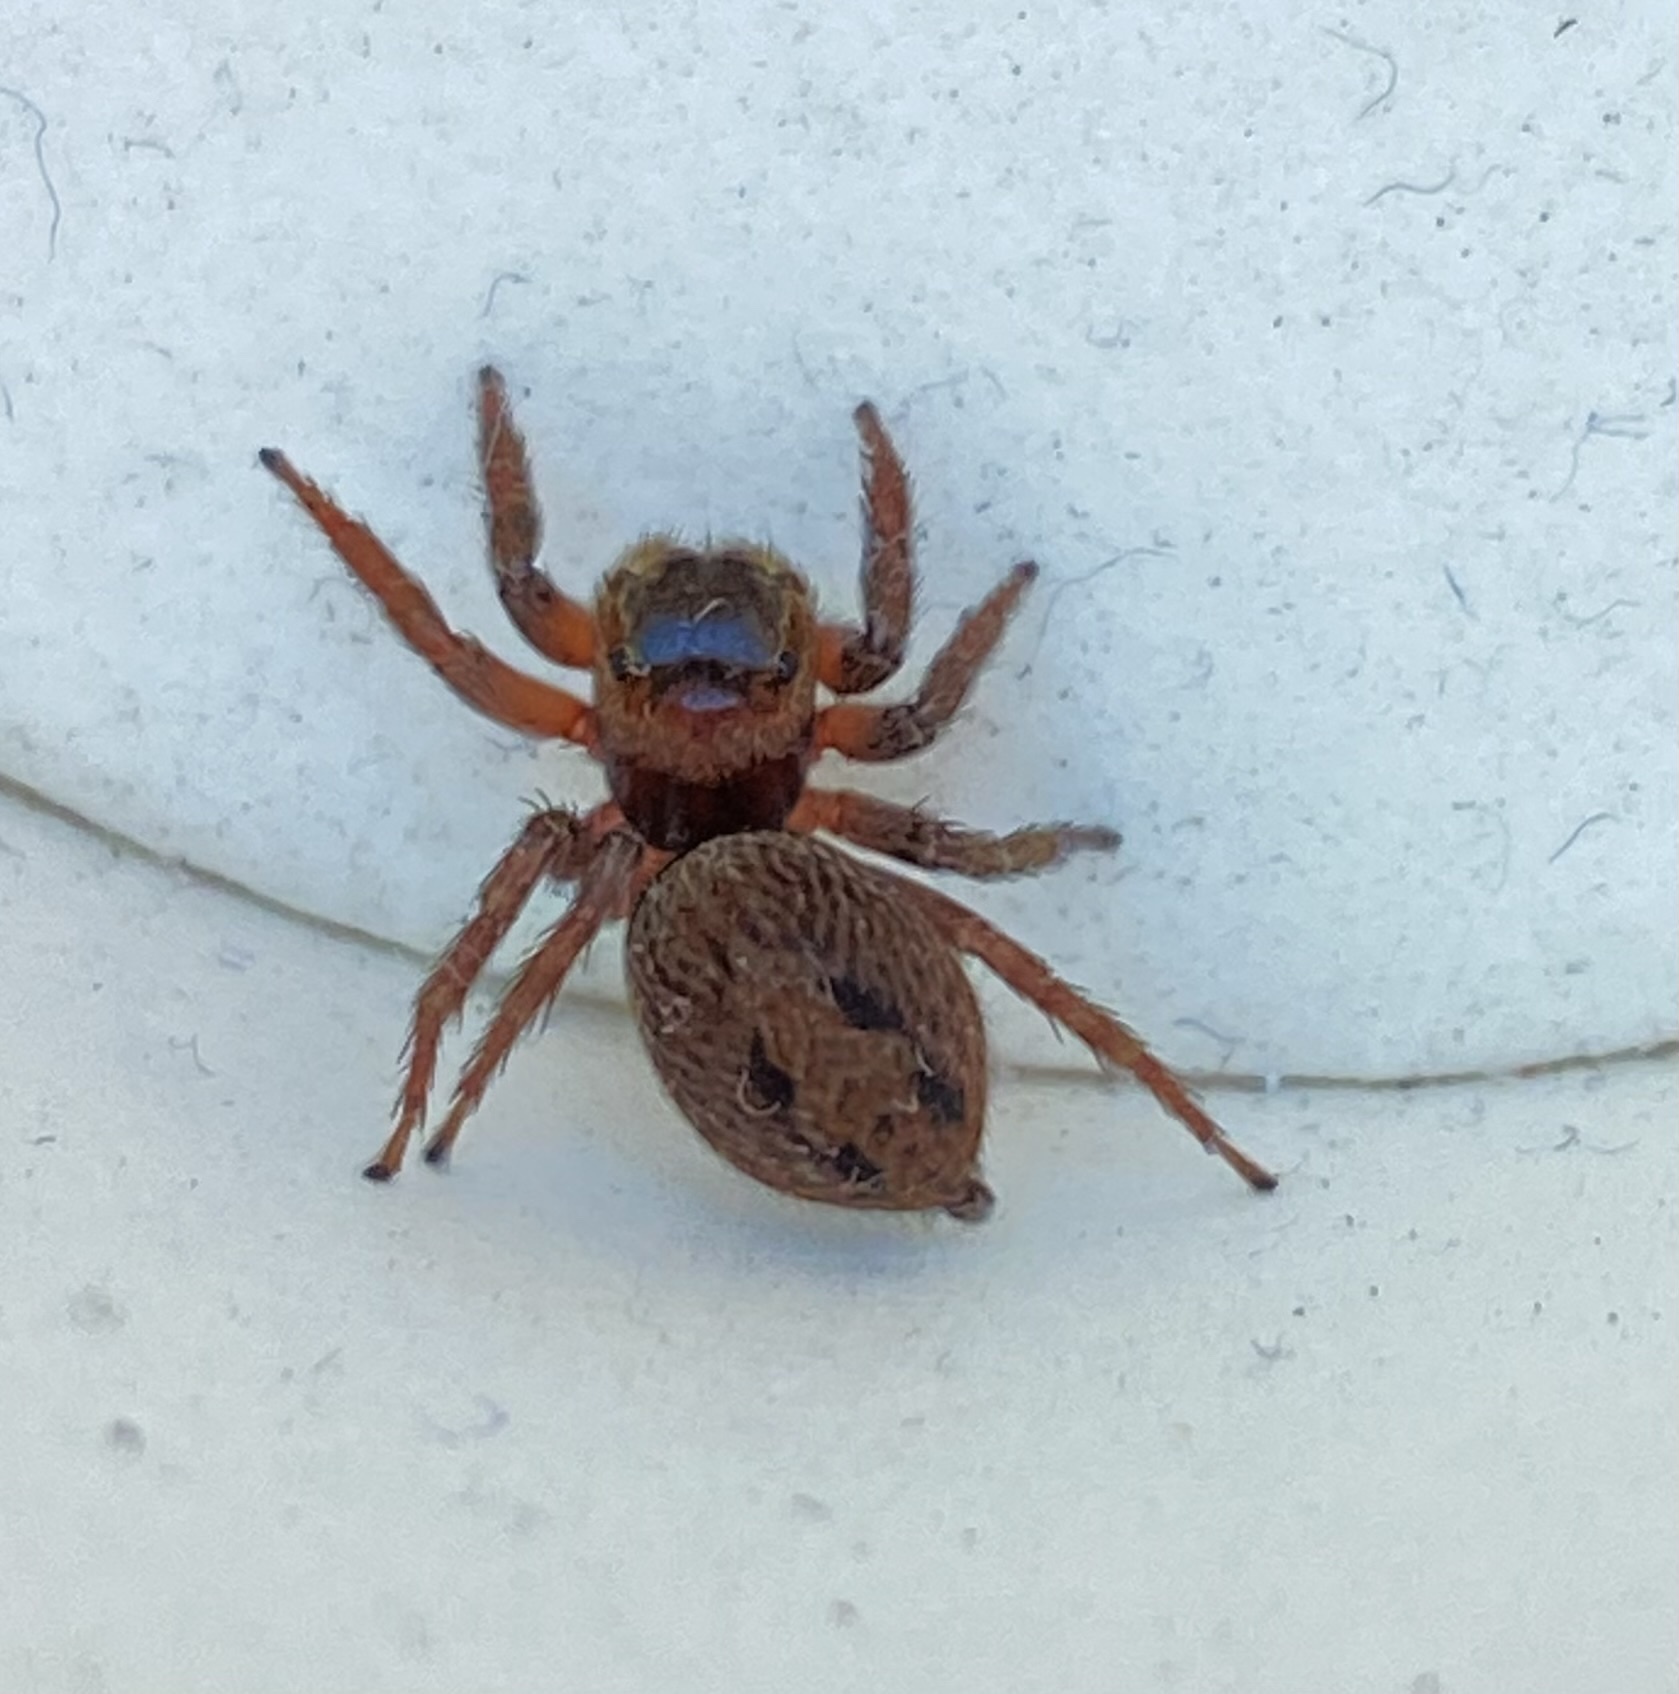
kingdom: Animalia
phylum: Arthropoda
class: Arachnida
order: Araneae
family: Salticidae
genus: Hasarius
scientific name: Hasarius adansoni
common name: Jumping spider
